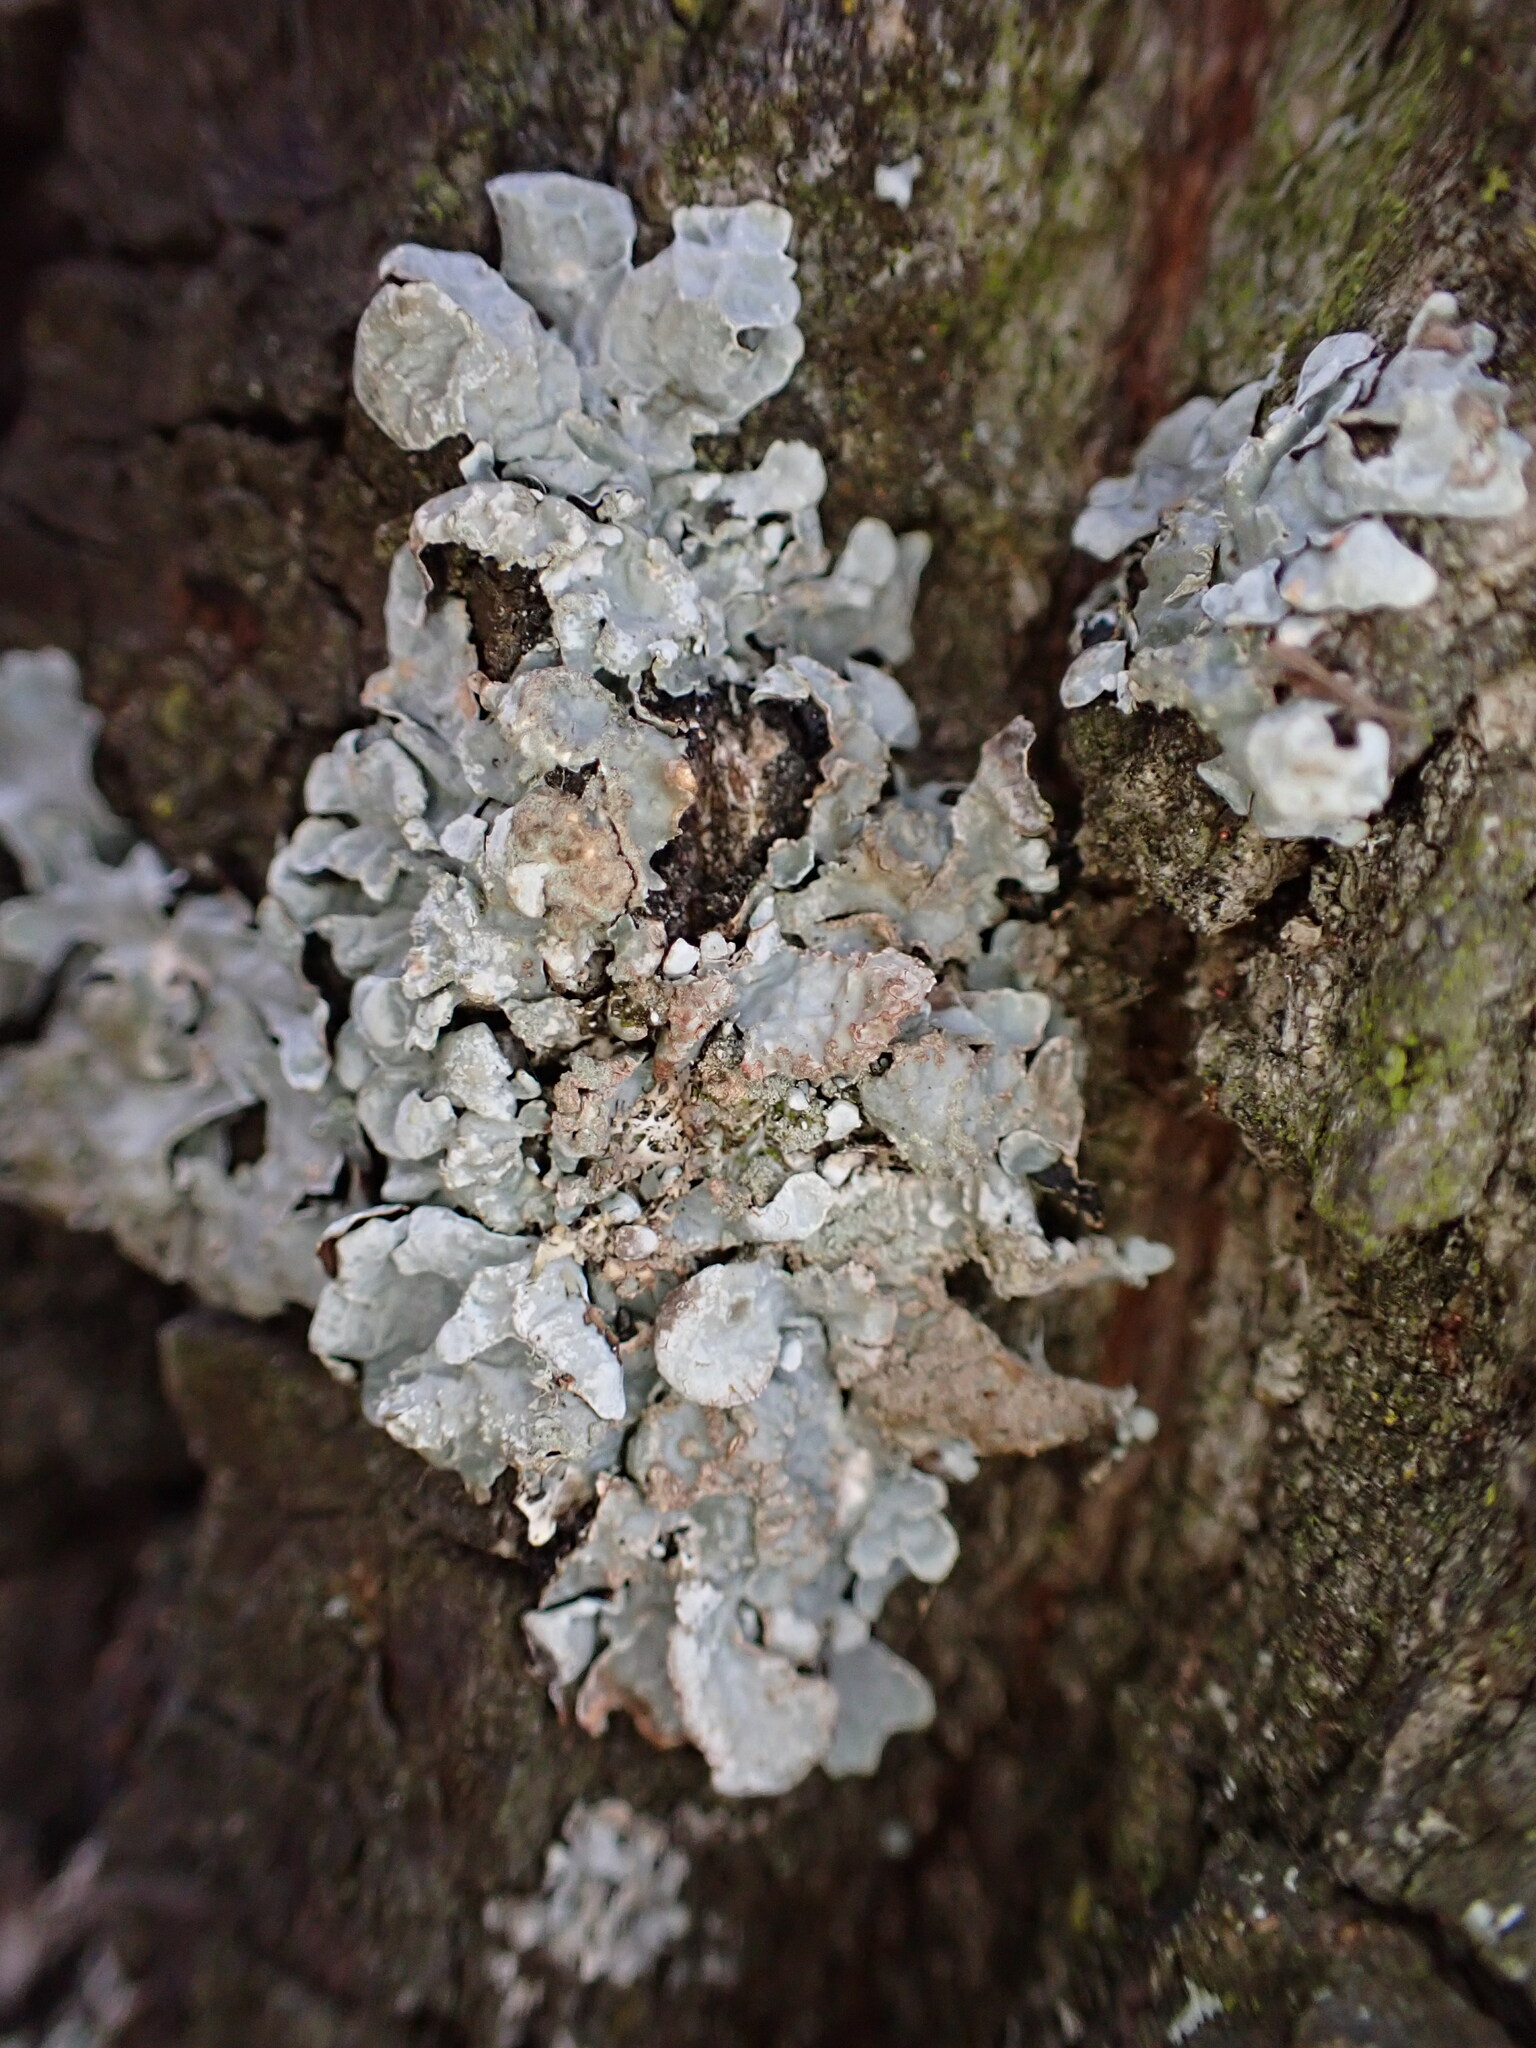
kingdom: Fungi
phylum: Ascomycota
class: Lecanoromycetes
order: Lecanorales
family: Parmeliaceae
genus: Parmelia
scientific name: Parmelia sulcata
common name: Netted shield lichen
